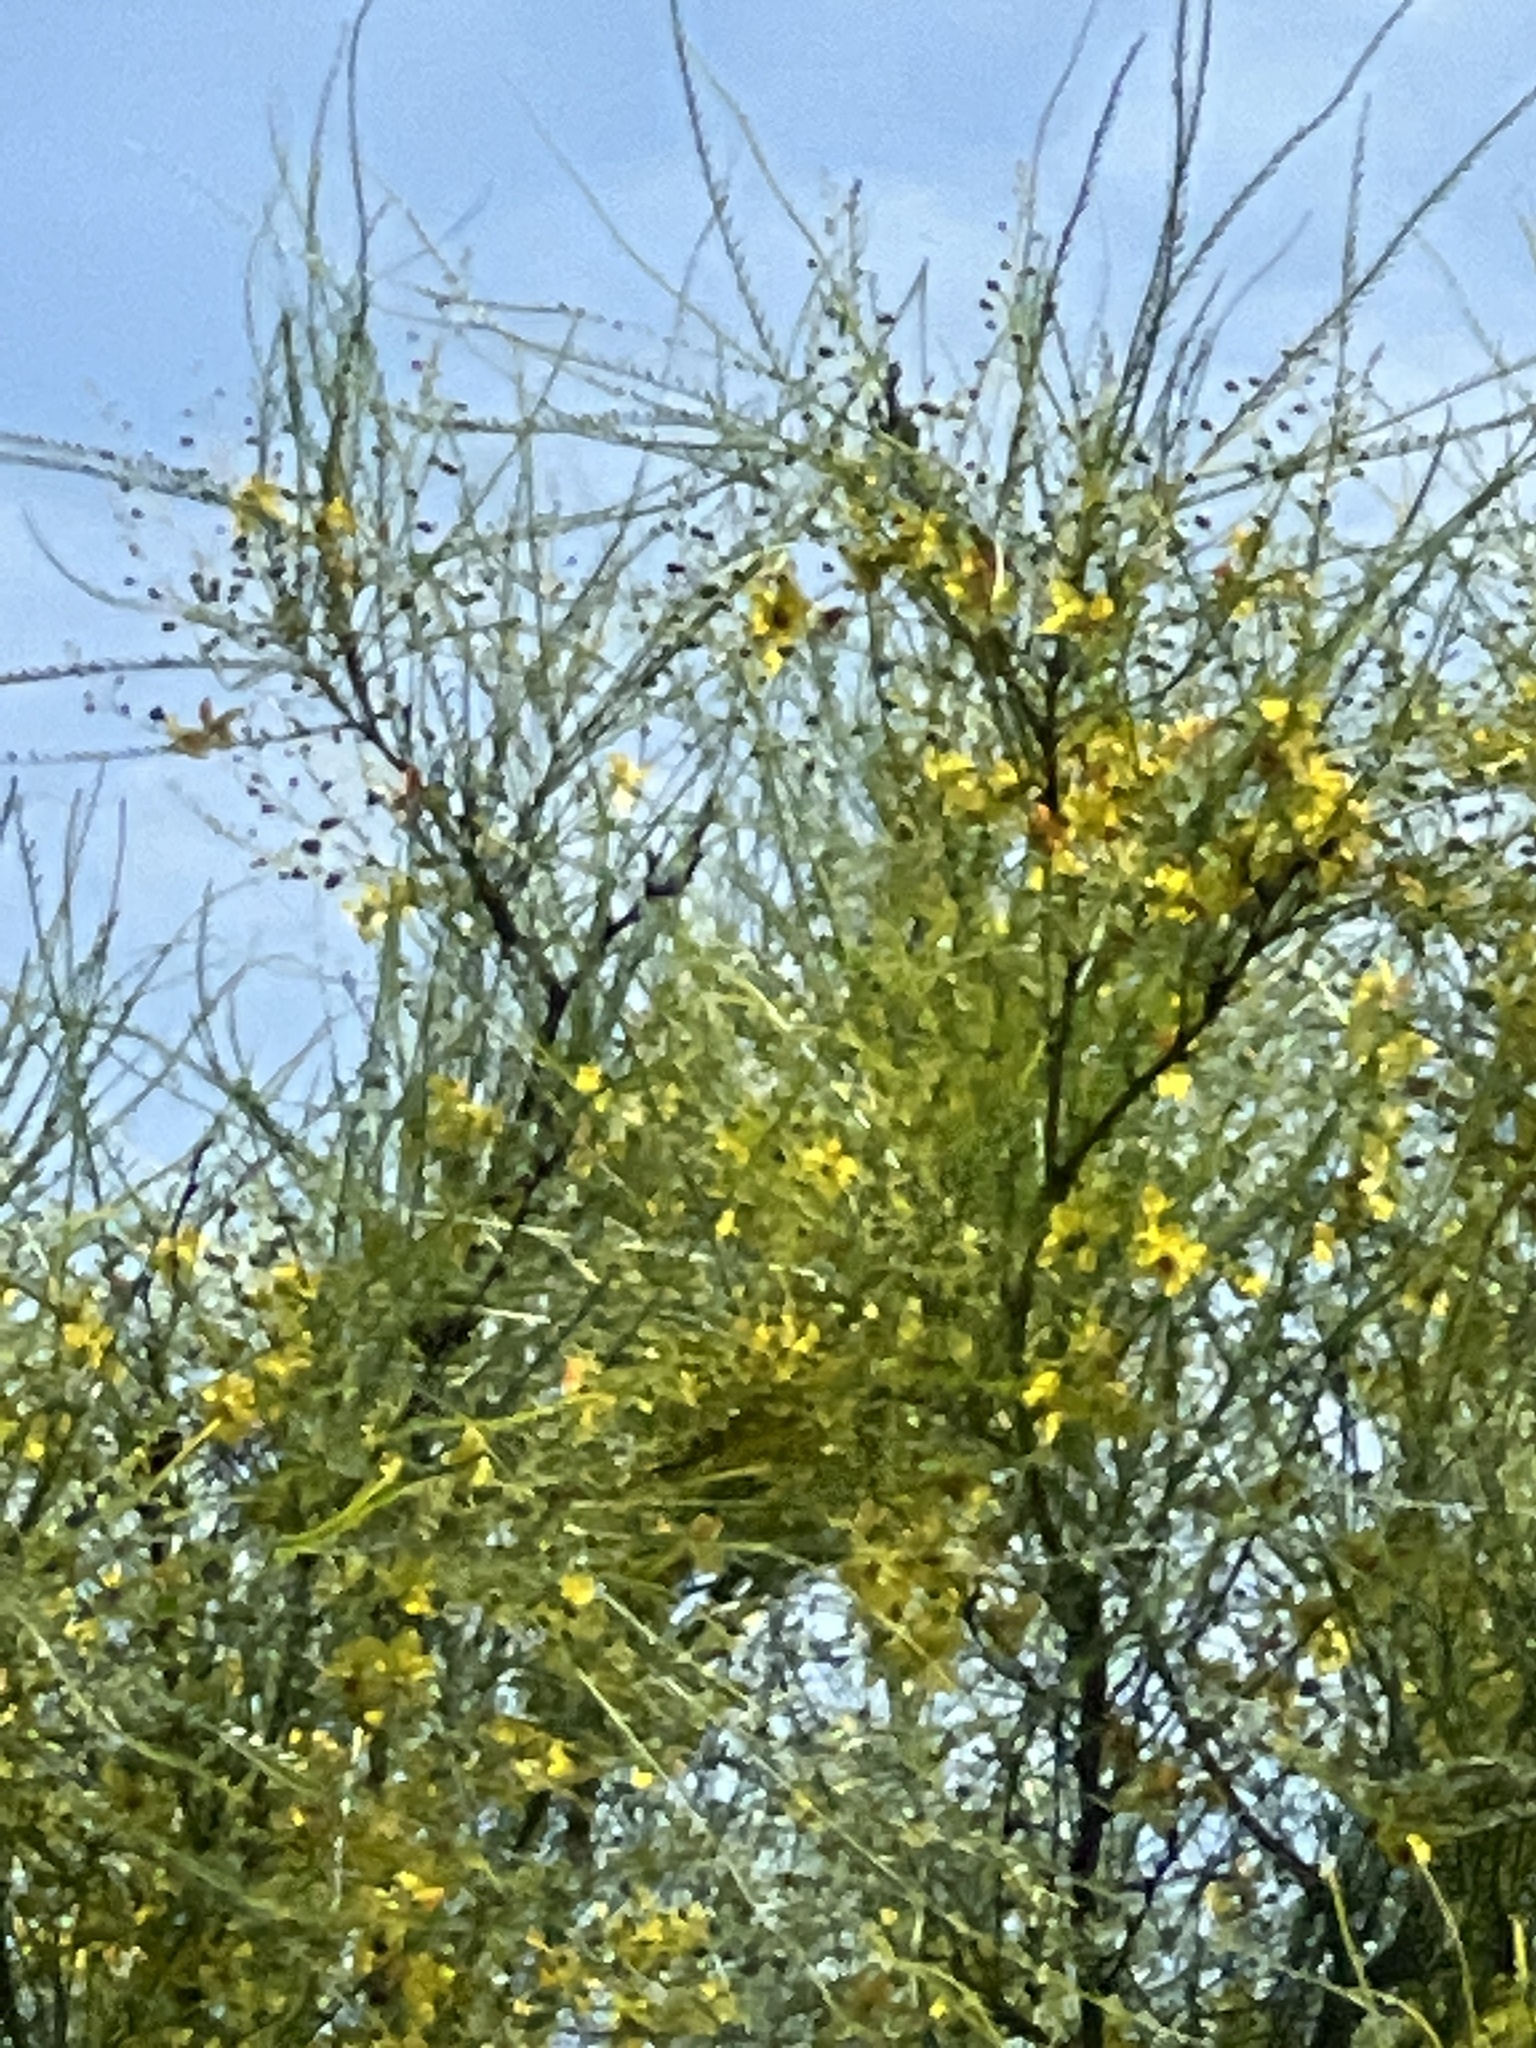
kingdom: Plantae
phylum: Tracheophyta
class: Magnoliopsida
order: Fabales
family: Fabaceae
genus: Parkinsonia
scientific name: Parkinsonia aculeata
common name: Jerusalem thorn
